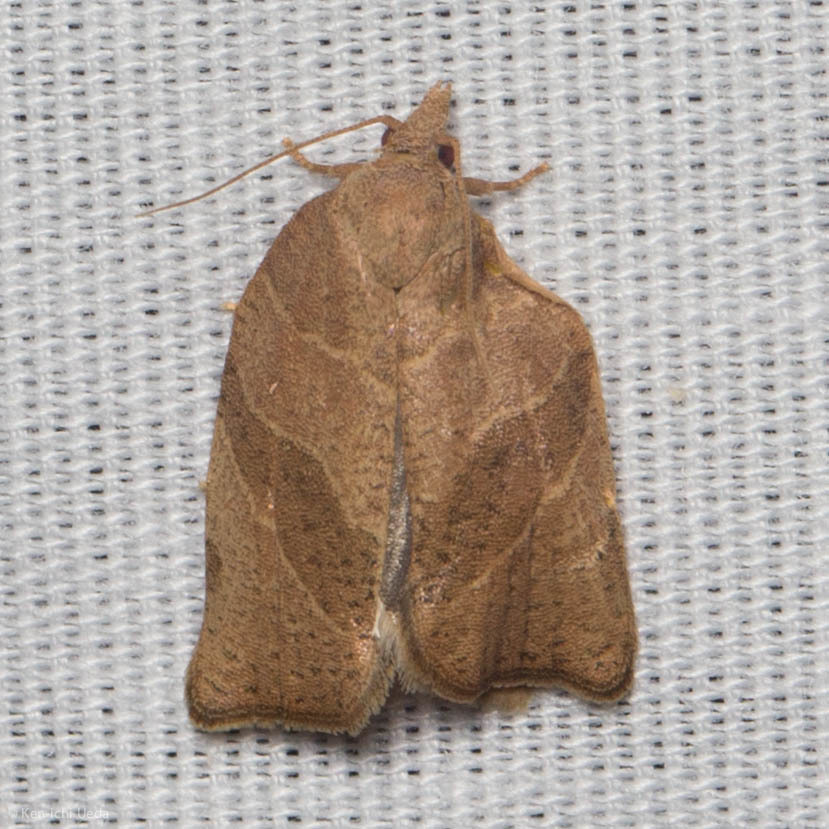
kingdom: Animalia
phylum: Arthropoda
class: Insecta
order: Lepidoptera
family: Tortricidae
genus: Pandemis
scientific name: Pandemis limitata
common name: Three-lined leafroller moth
